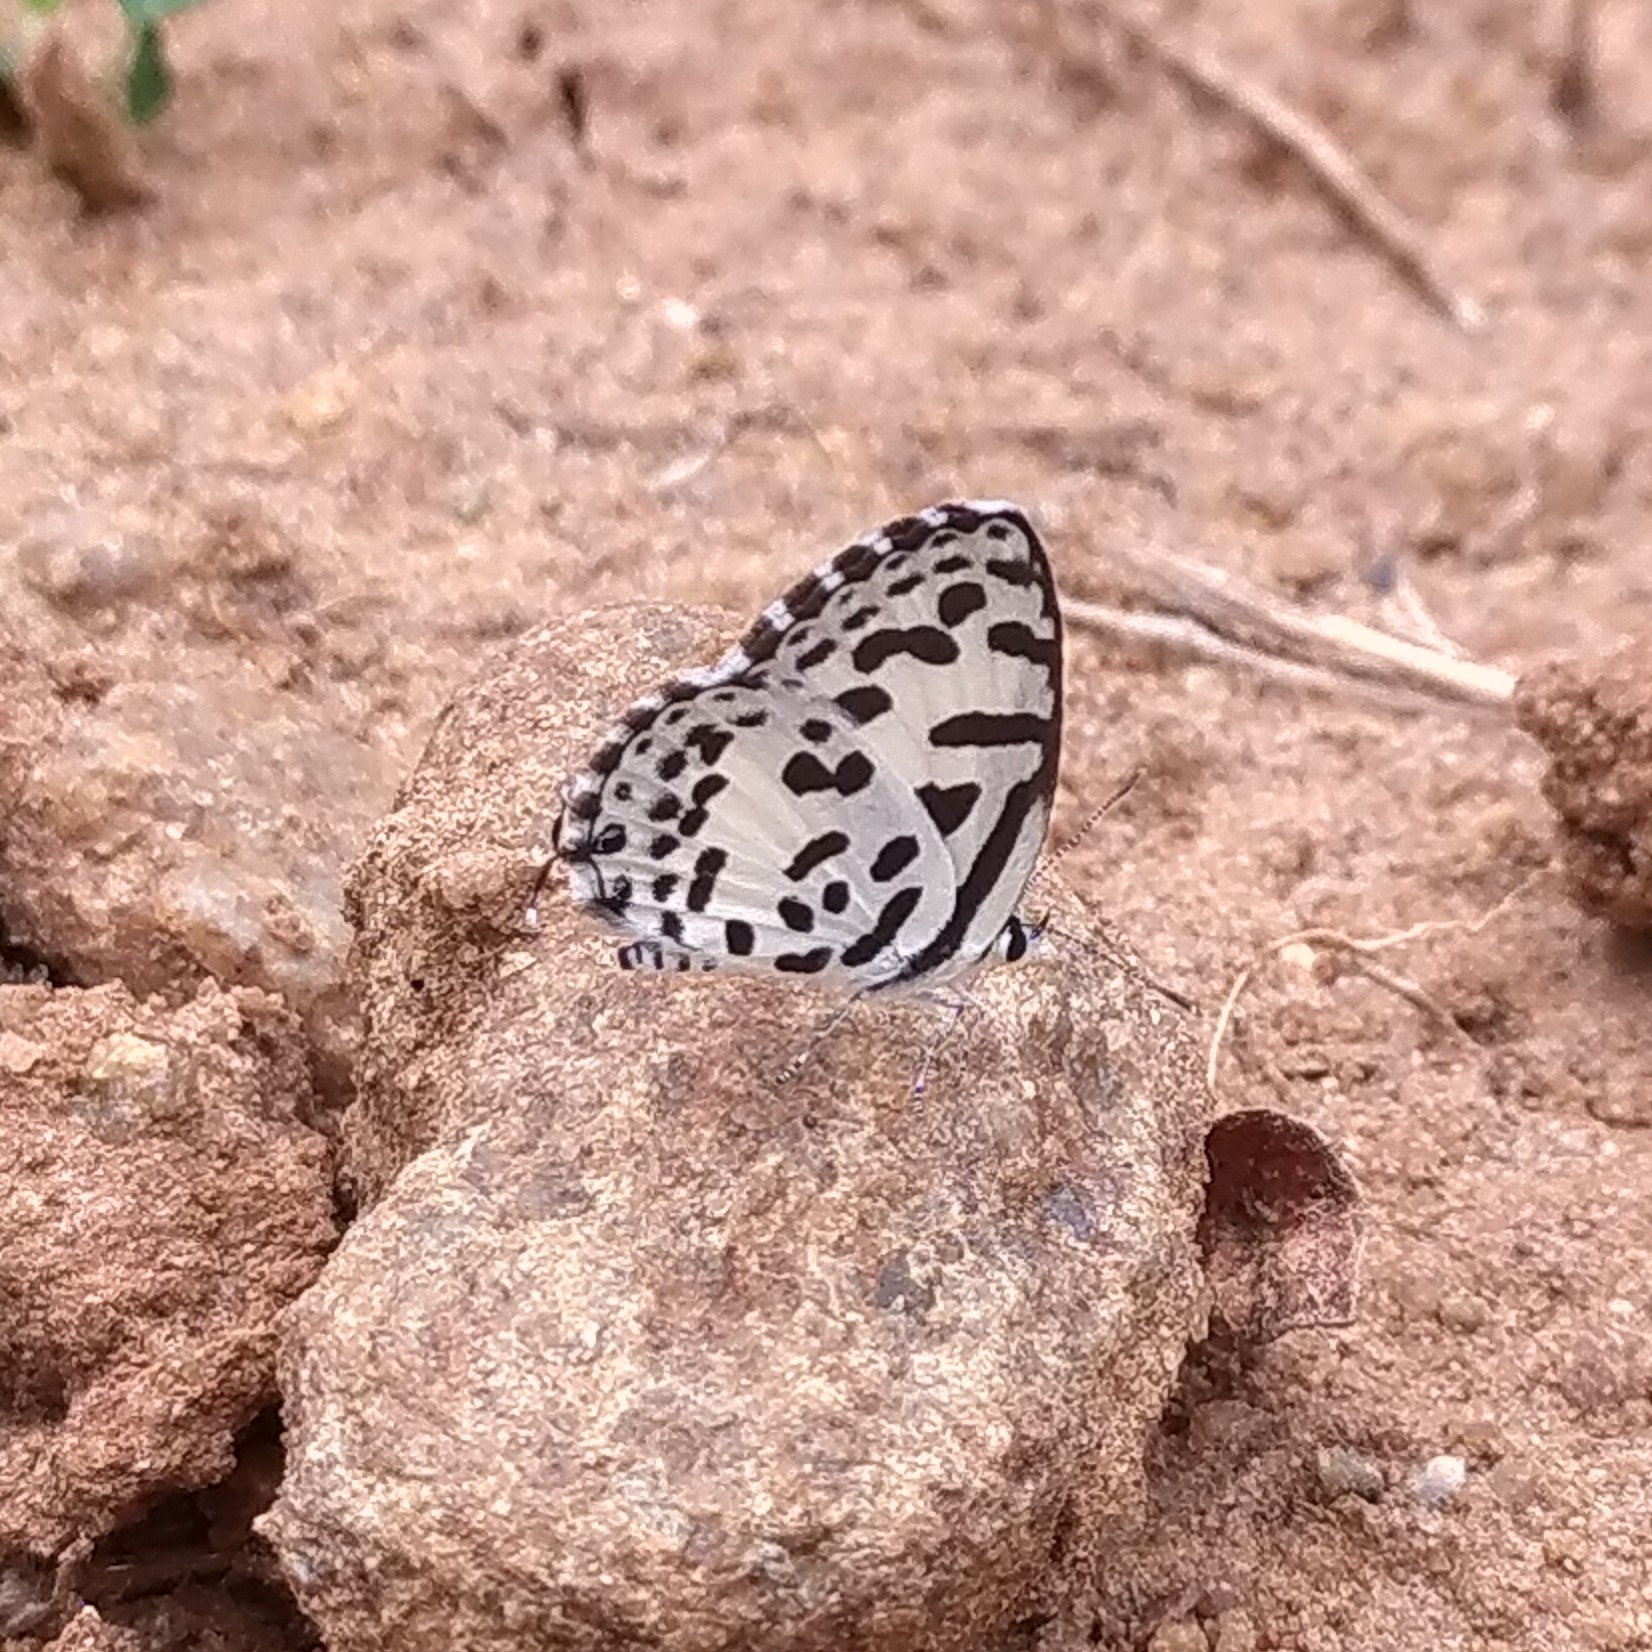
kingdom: Animalia
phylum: Arthropoda
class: Insecta
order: Lepidoptera
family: Lycaenidae
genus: Castalius
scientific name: Castalius rosimon
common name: Common pierrot
